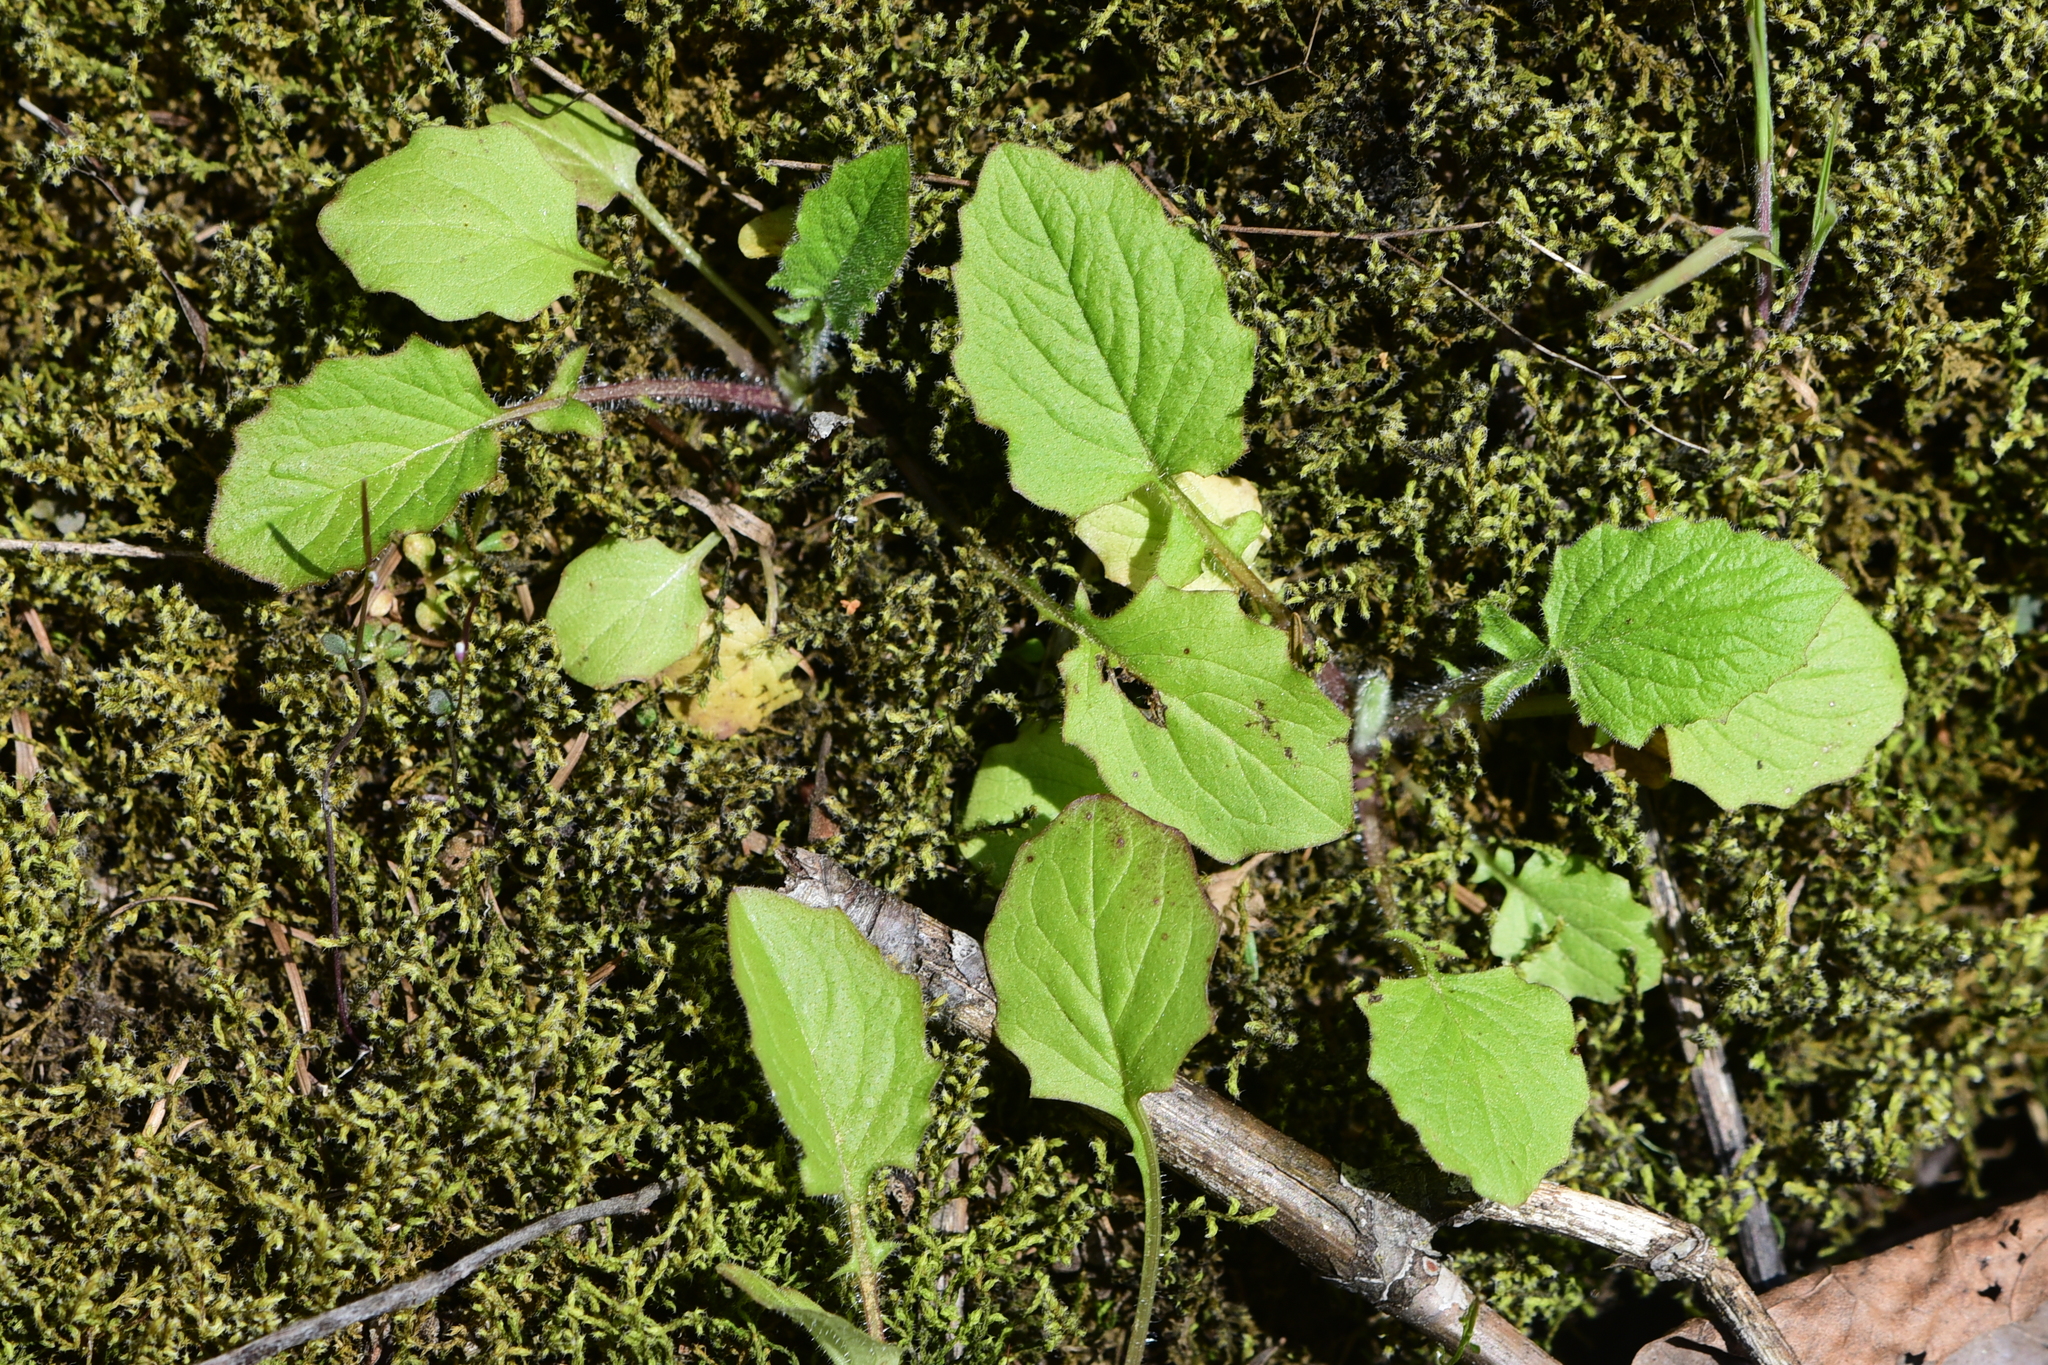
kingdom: Plantae
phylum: Tracheophyta
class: Magnoliopsida
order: Asterales
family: Asteraceae
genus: Lapsana
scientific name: Lapsana communis
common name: Nipplewort
